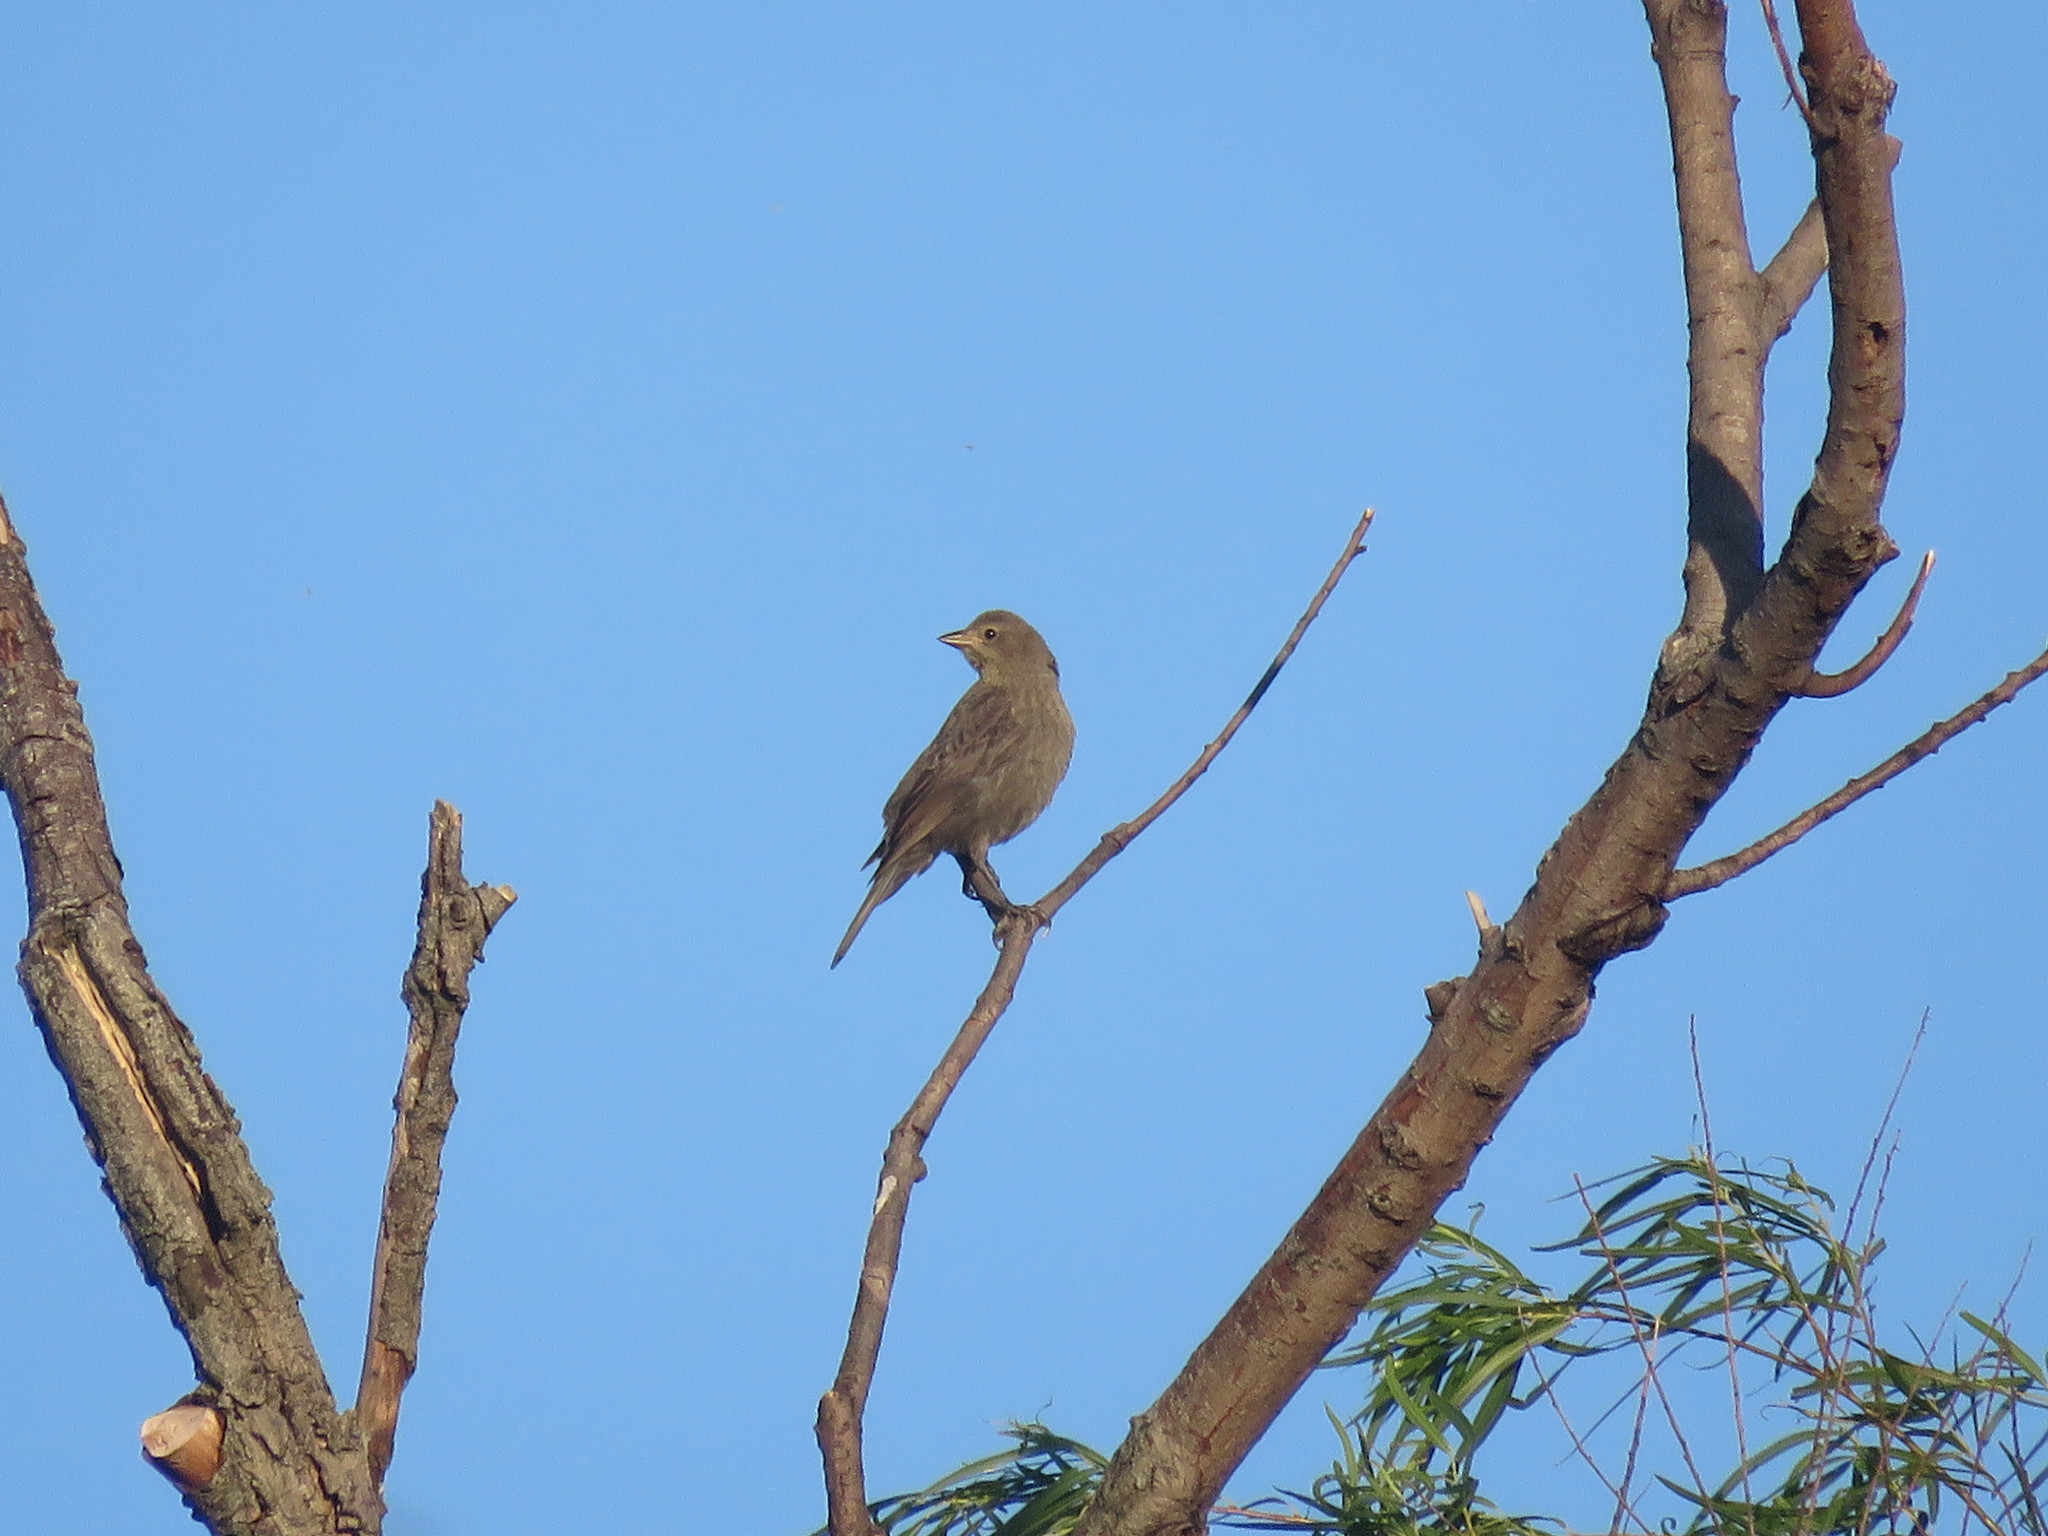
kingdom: Animalia
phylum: Chordata
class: Aves
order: Passeriformes
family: Icteridae
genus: Molothrus
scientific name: Molothrus bonariensis
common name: Shiny cowbird
